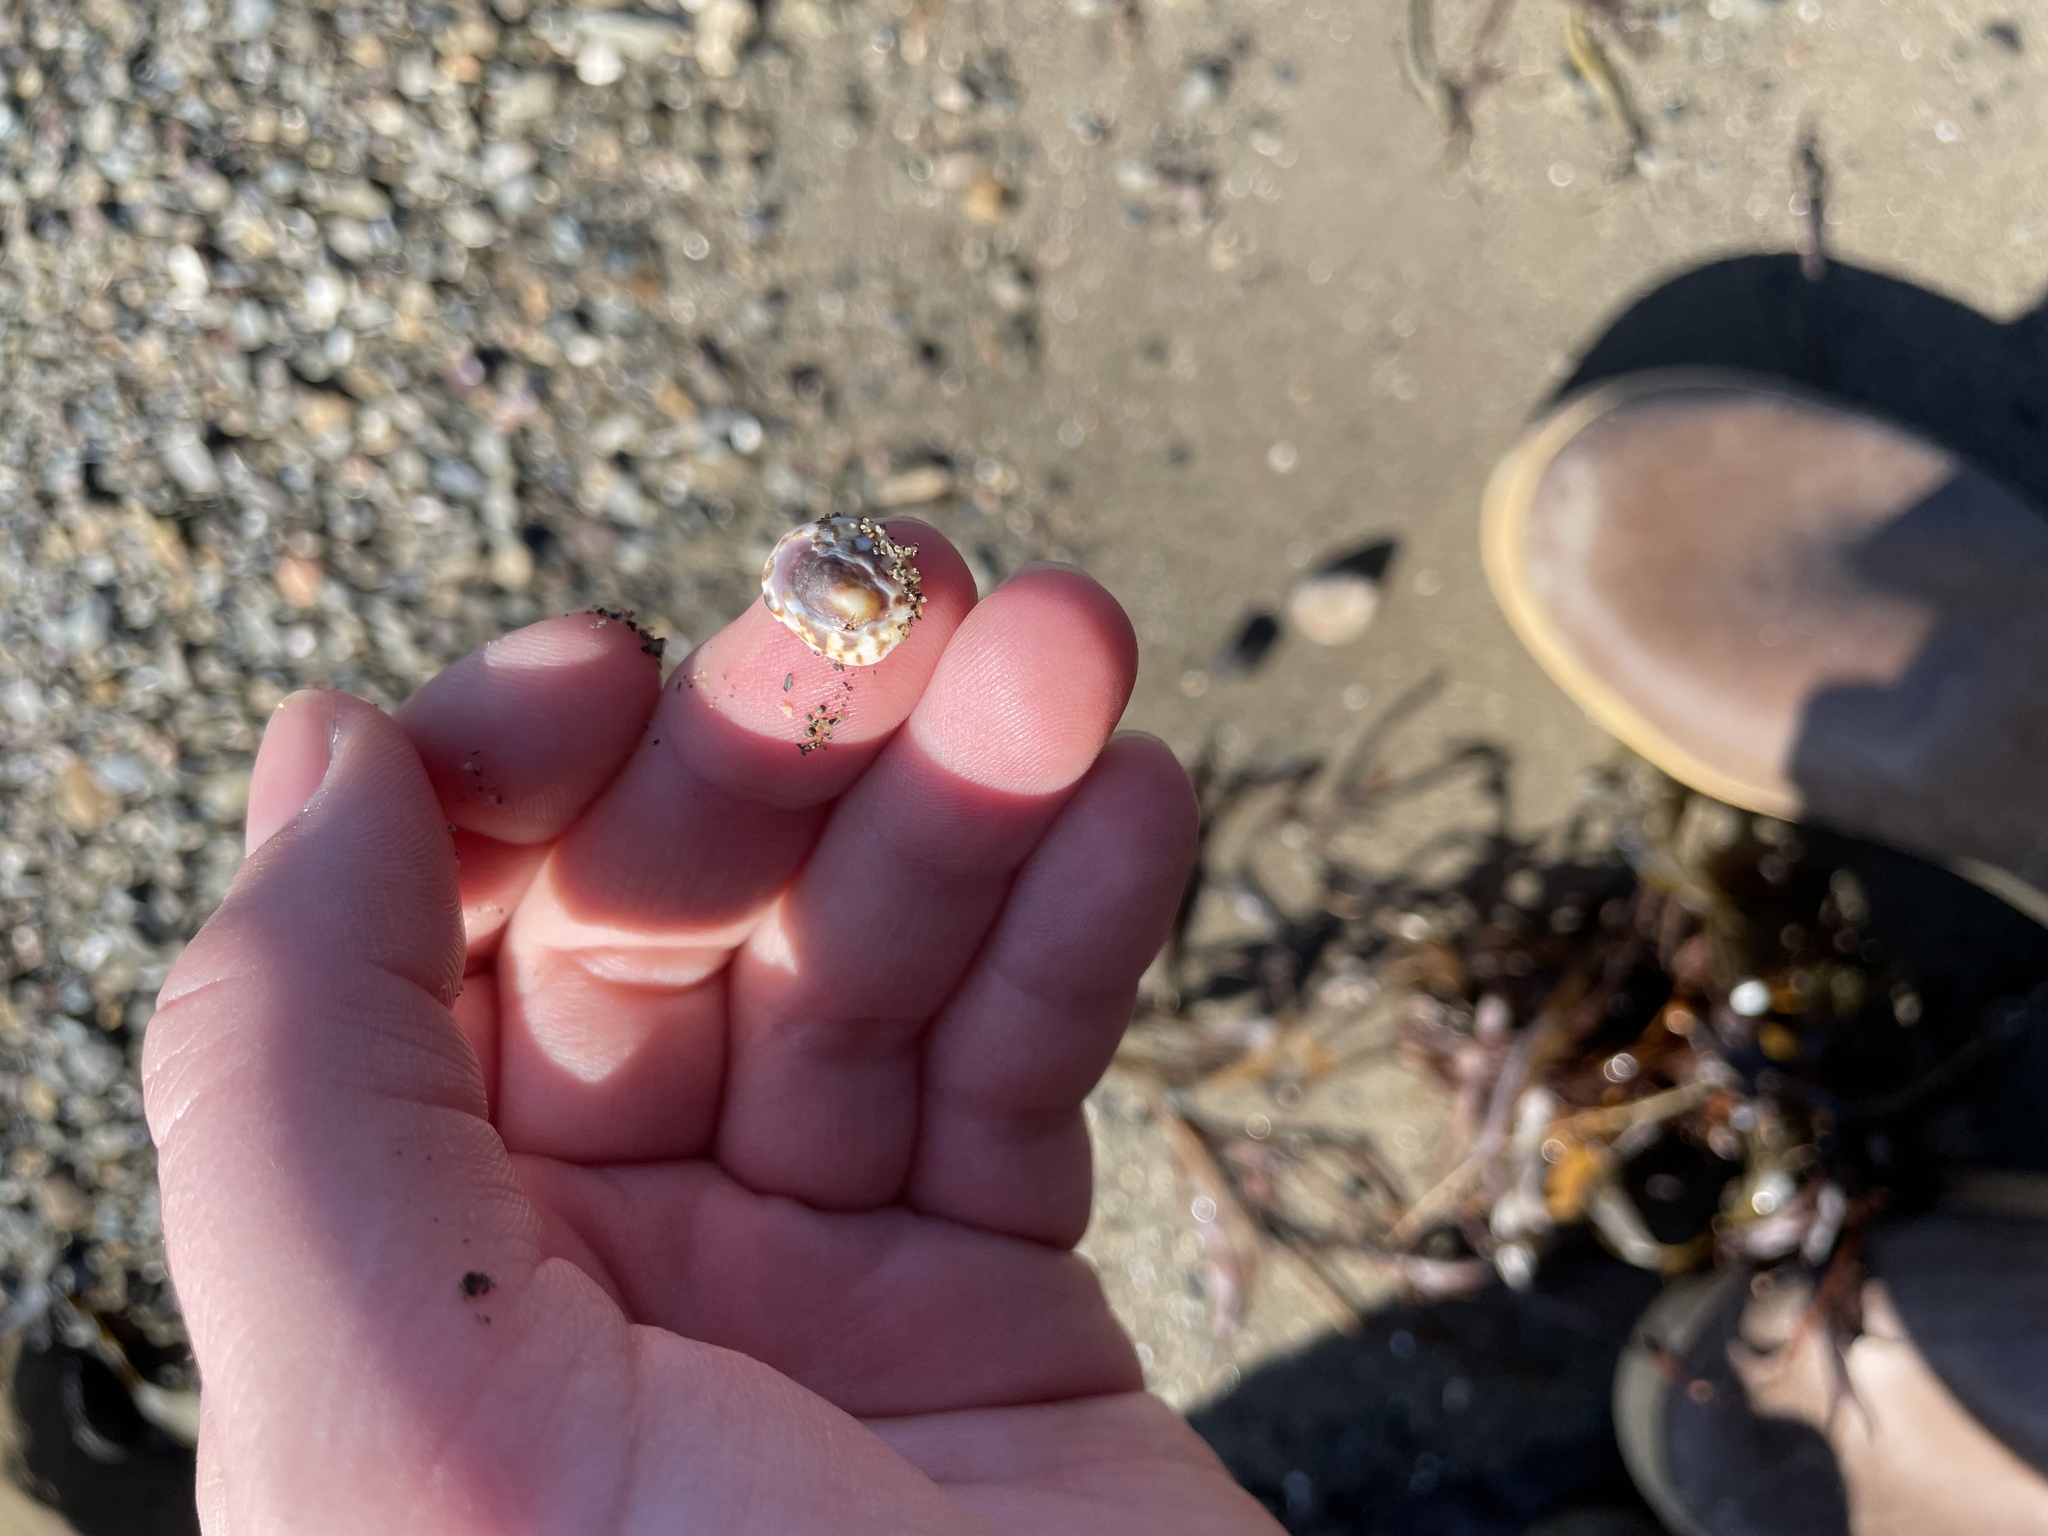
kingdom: Animalia
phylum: Mollusca
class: Gastropoda
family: Lottiidae
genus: Testudinalia
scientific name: Testudinalia testudinalis
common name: Common tortoiseshell limpet
